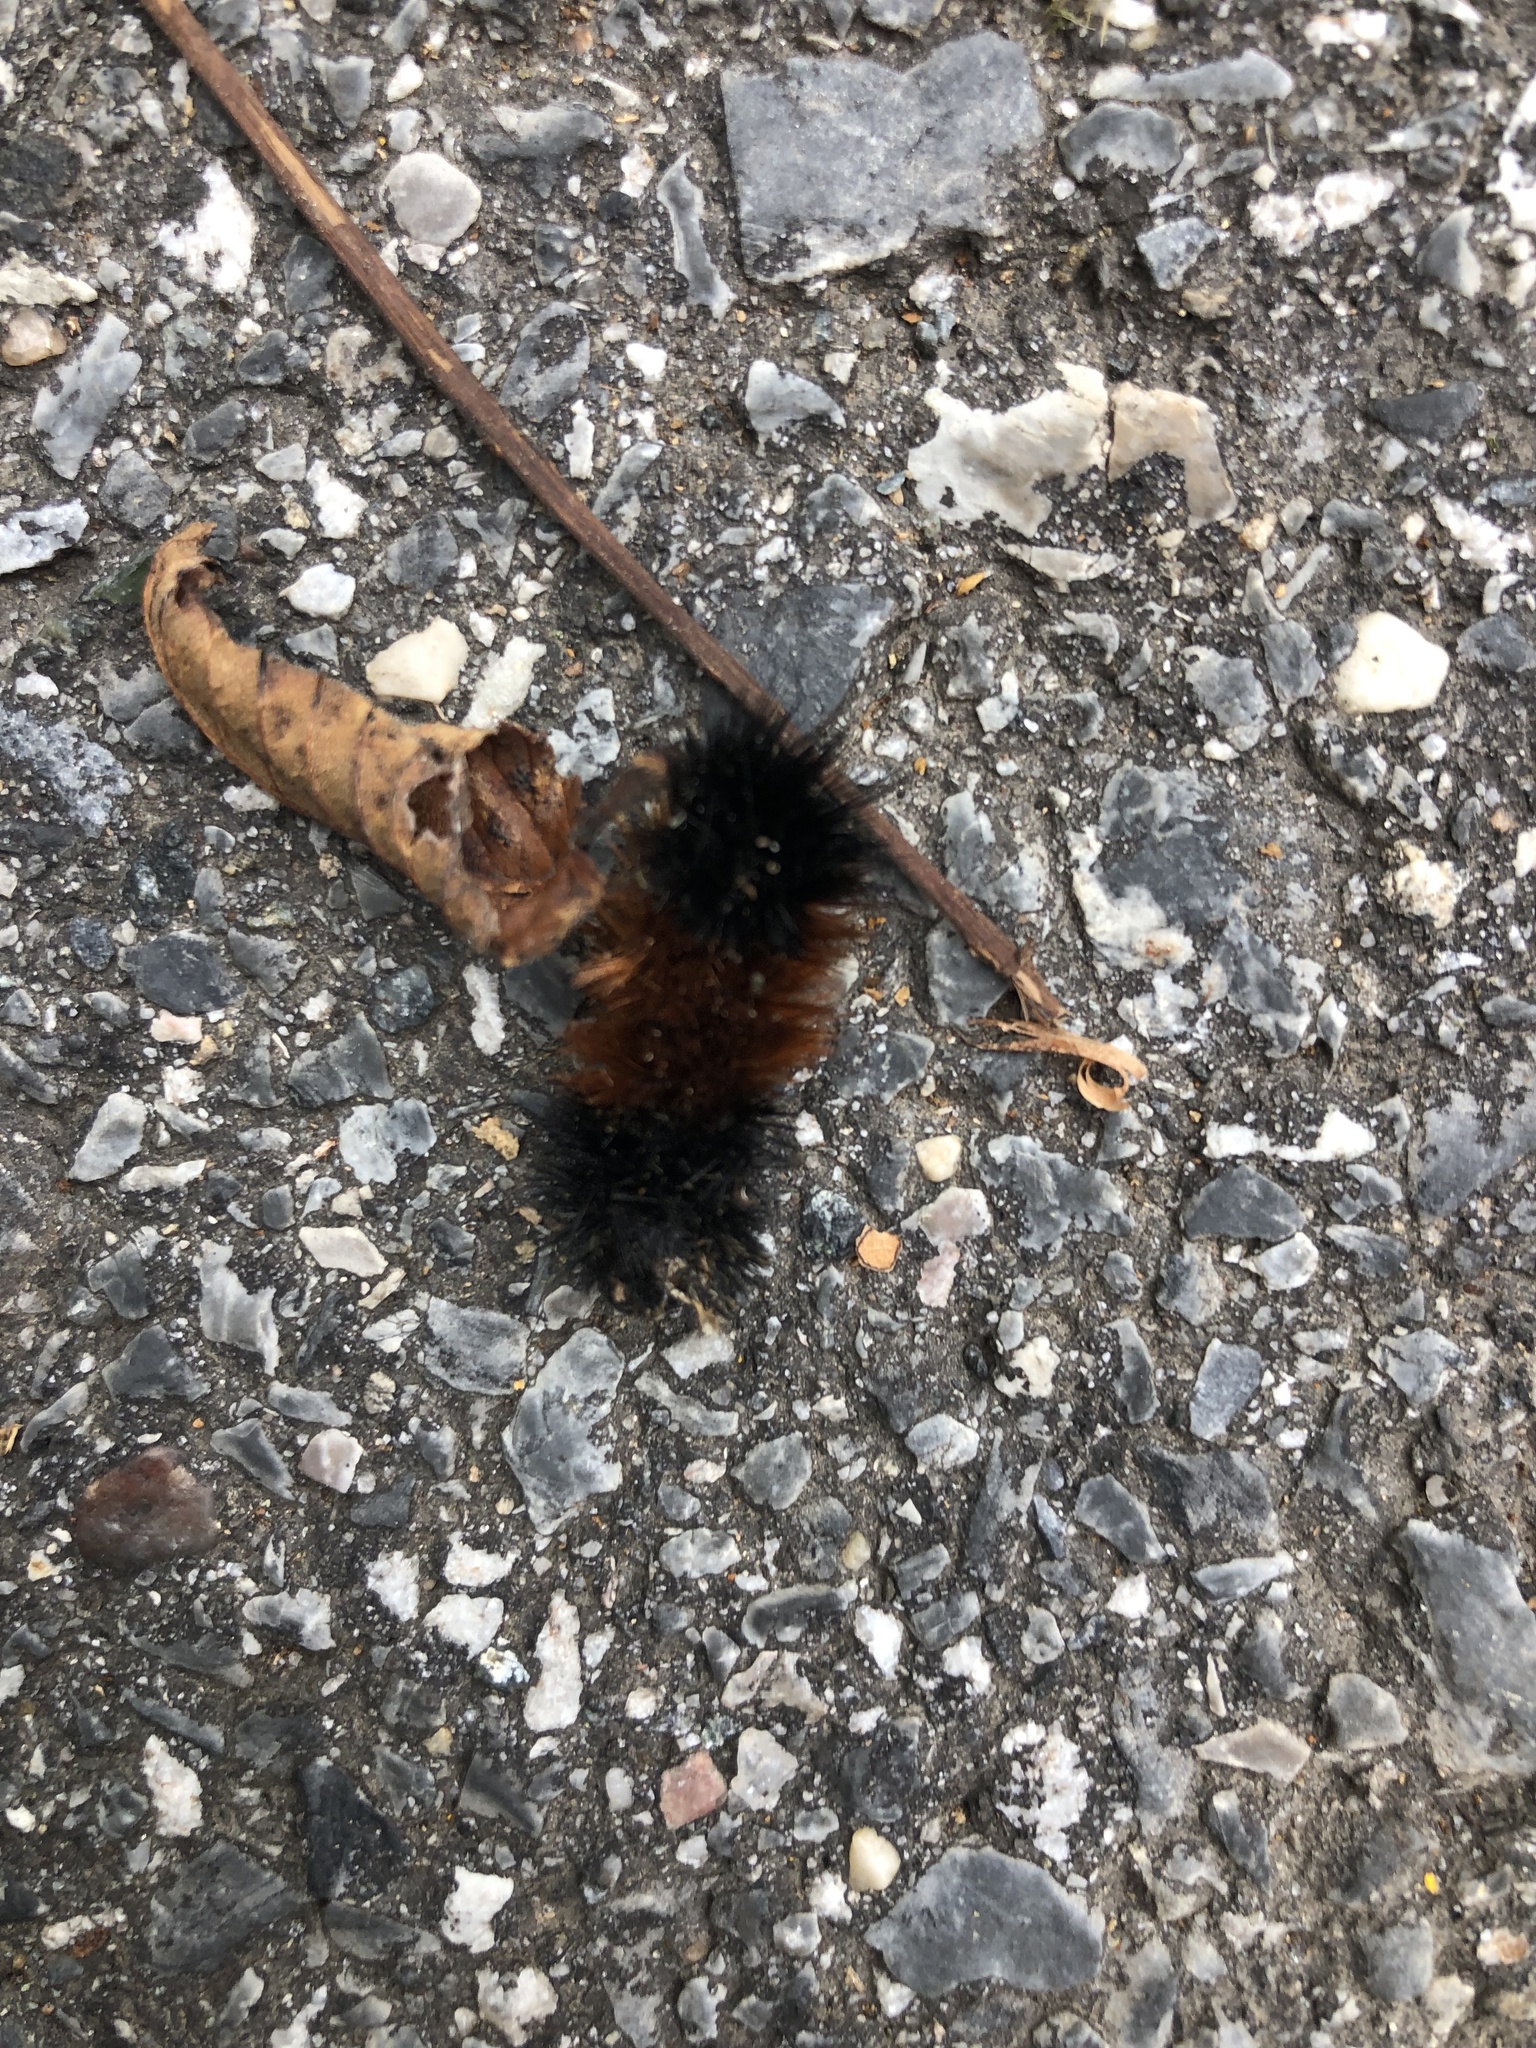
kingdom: Animalia
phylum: Arthropoda
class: Insecta
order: Lepidoptera
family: Erebidae
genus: Pyrrharctia
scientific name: Pyrrharctia isabella
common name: Isabella tiger moth
